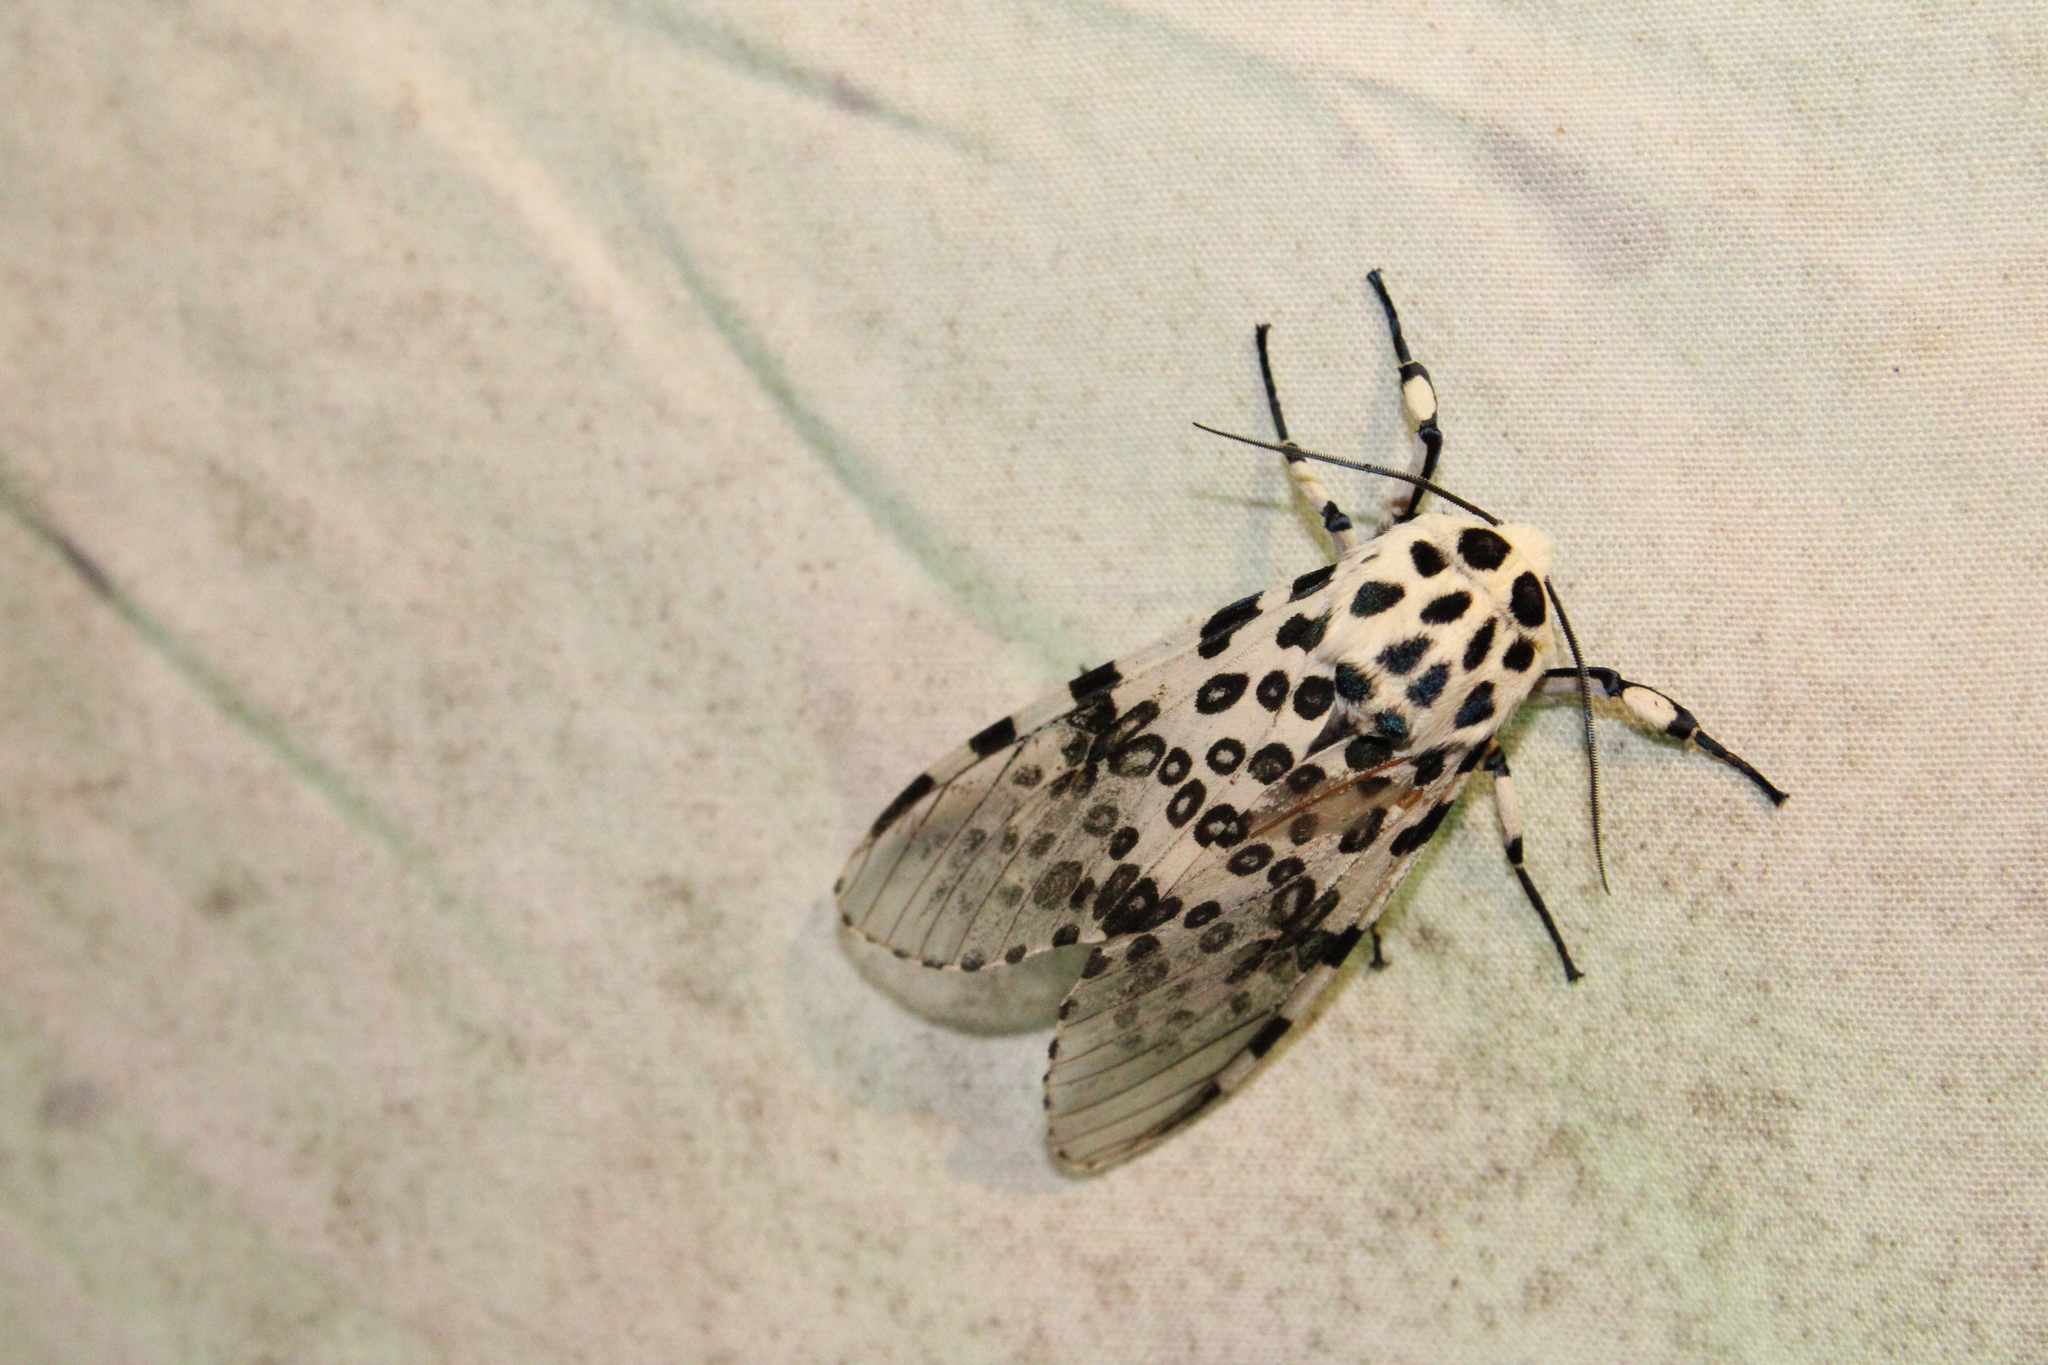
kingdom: Animalia
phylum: Arthropoda
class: Insecta
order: Lepidoptera
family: Erebidae
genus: Hypercompe
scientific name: Hypercompe scribonia
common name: Giant leopard moth
